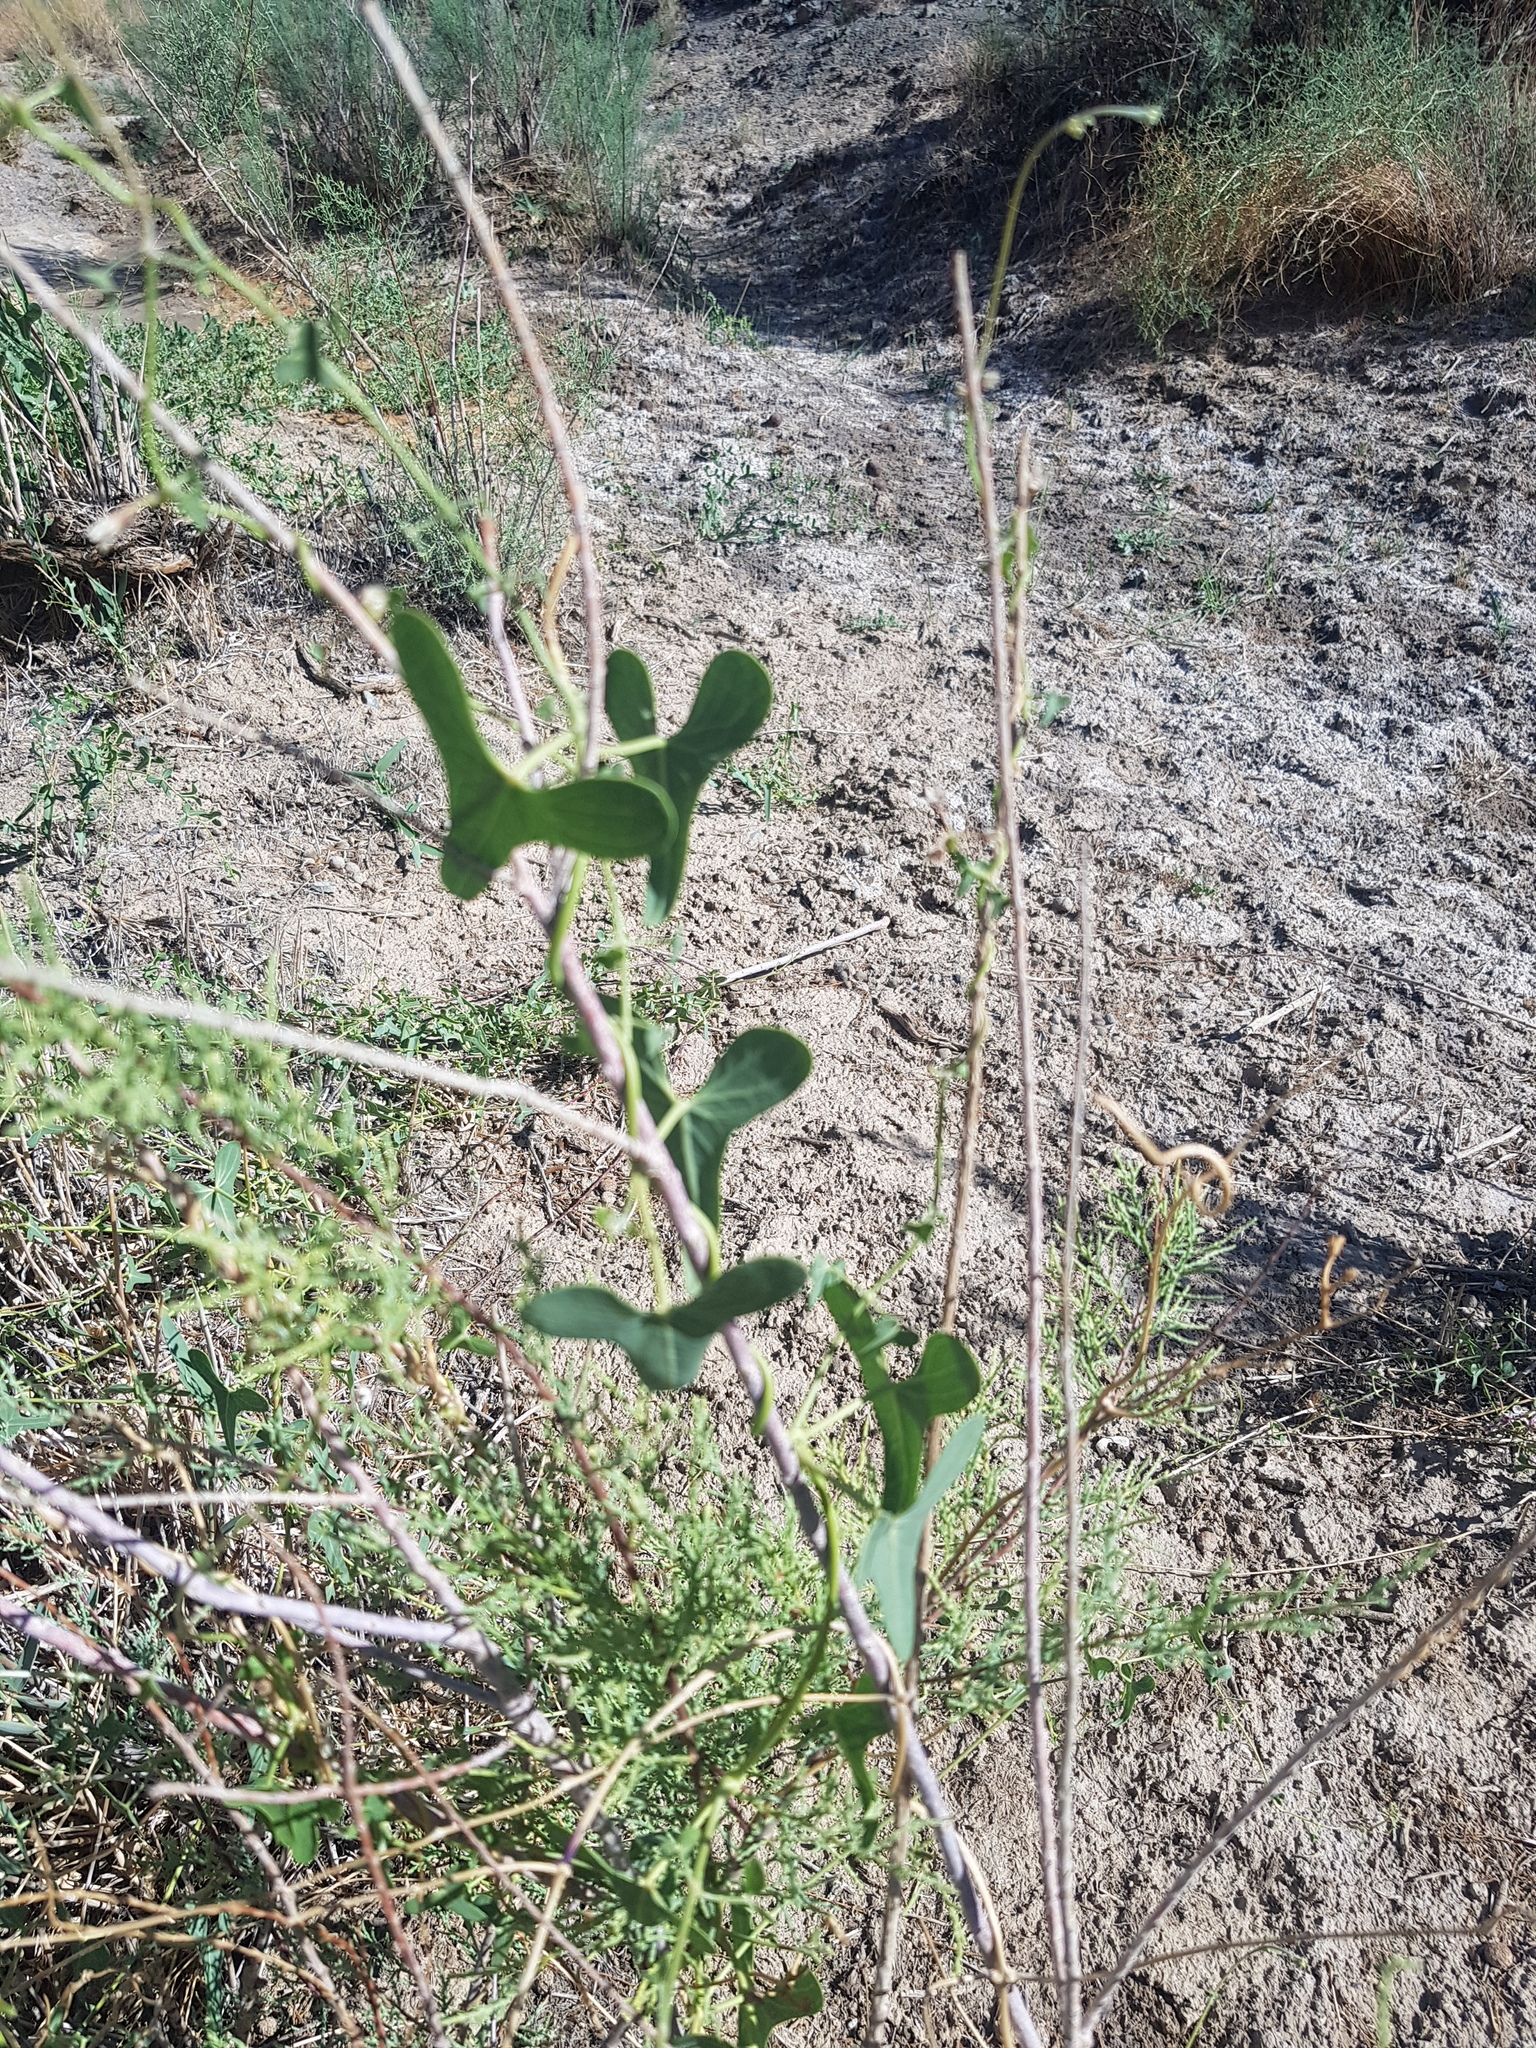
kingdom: Plantae
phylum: Tracheophyta
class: Magnoliopsida
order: Gentianales
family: Apocynaceae
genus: Cynanchum
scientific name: Cynanchum acutum
